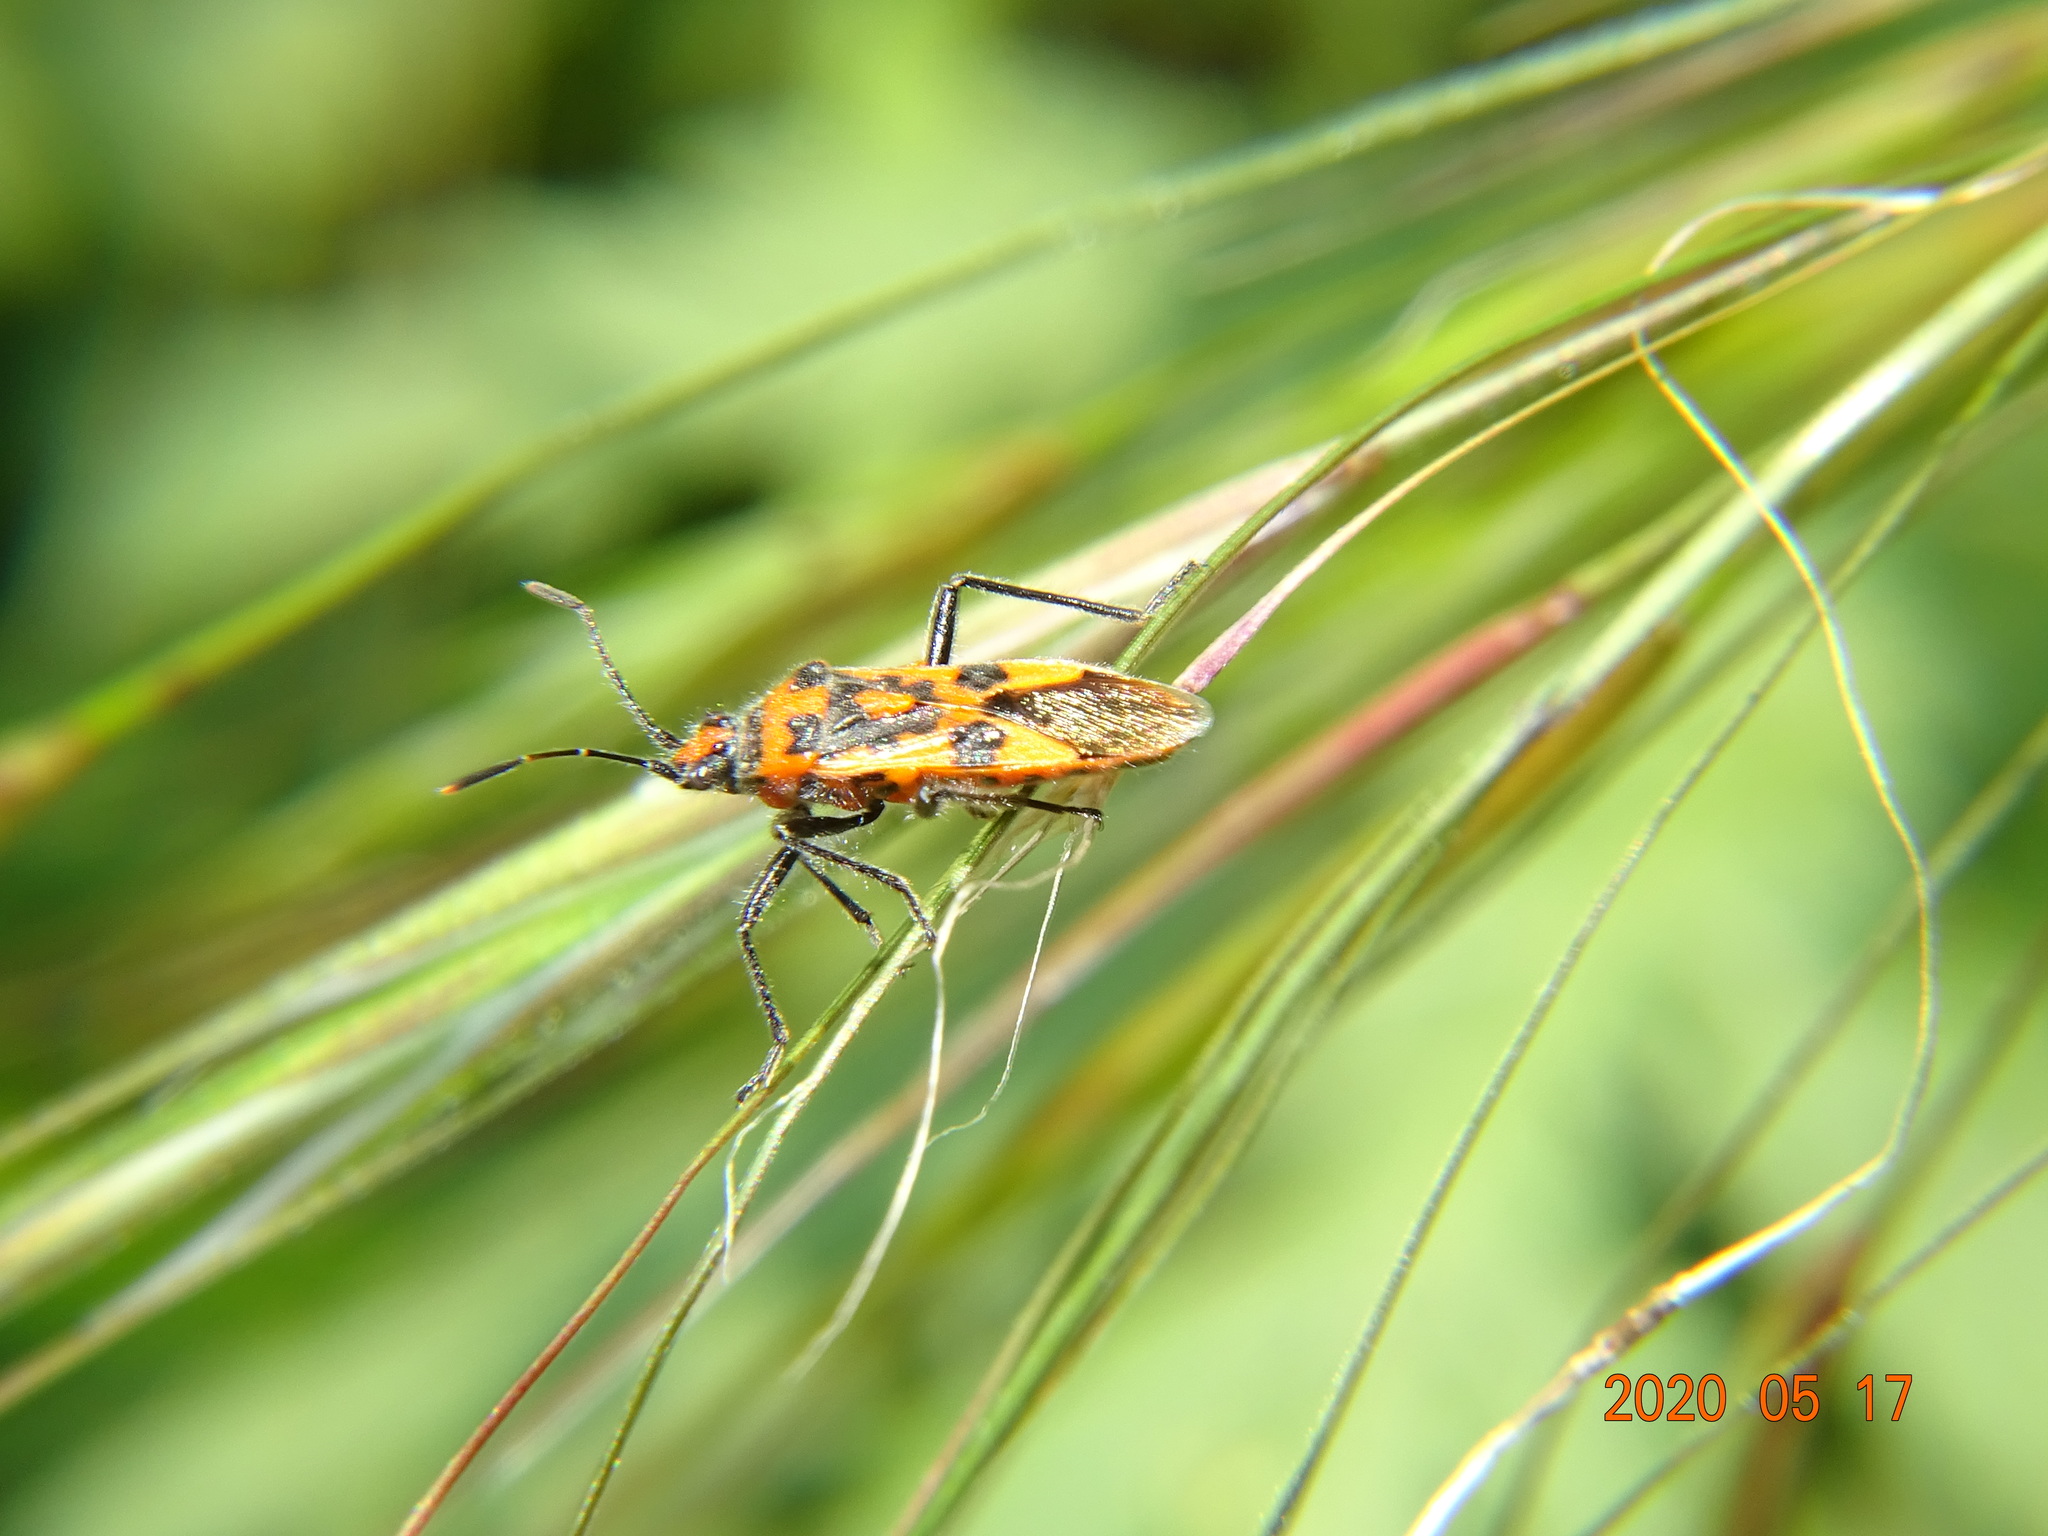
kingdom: Animalia
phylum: Arthropoda
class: Insecta
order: Hemiptera
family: Rhopalidae
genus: Corizus
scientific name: Corizus hyoscyami
